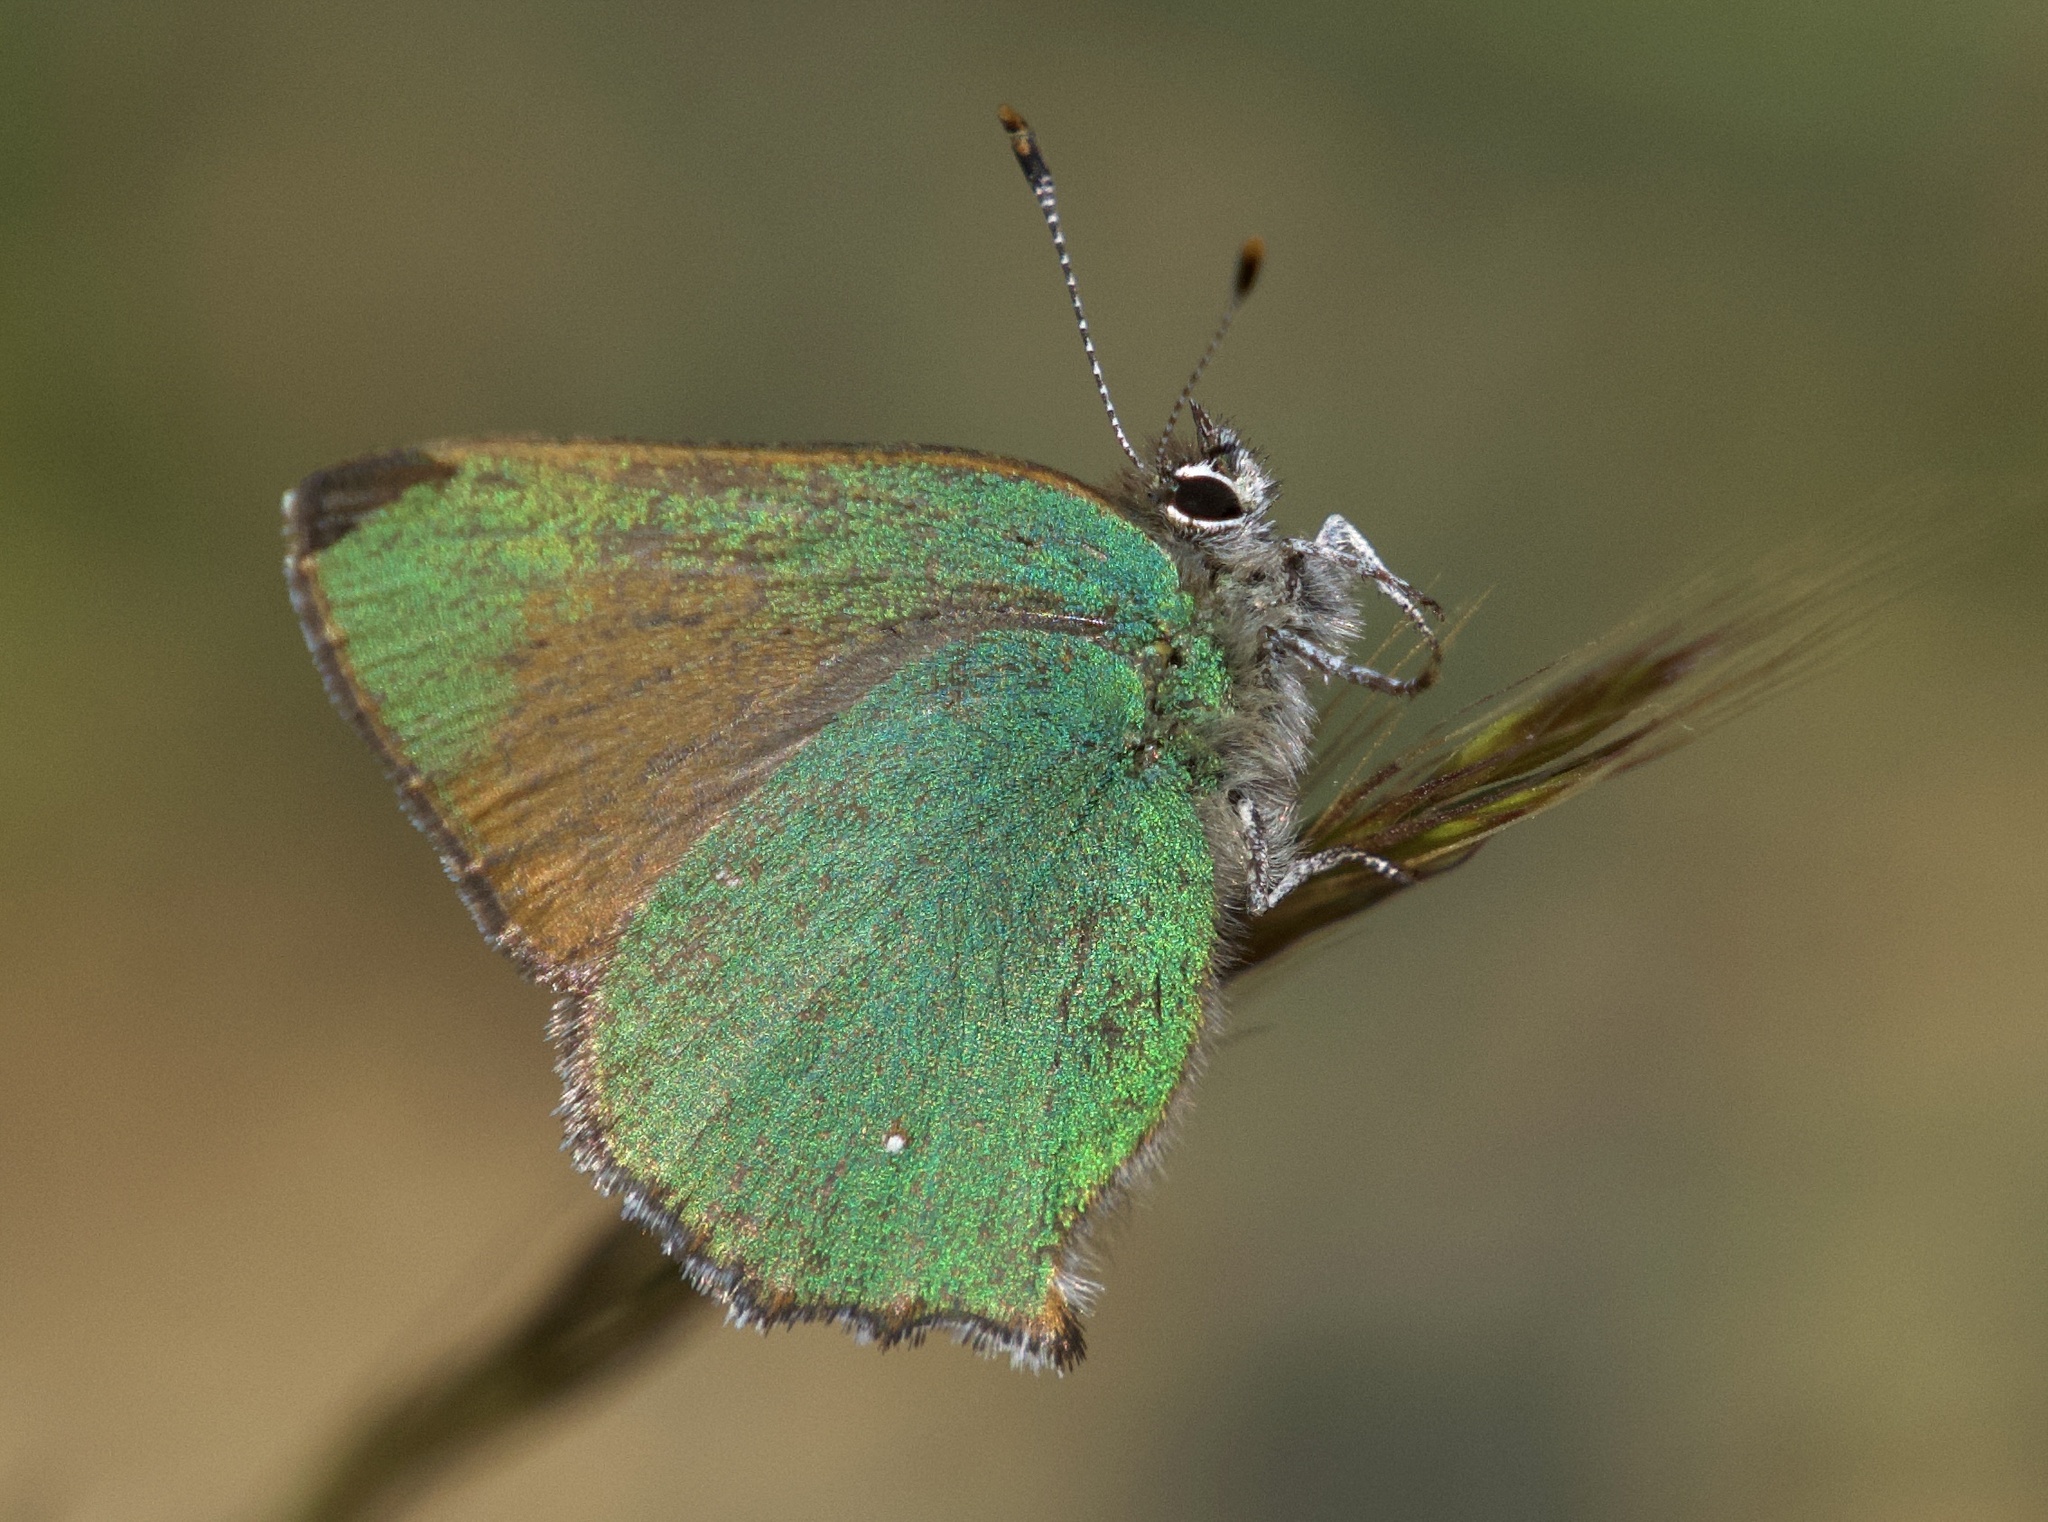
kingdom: Animalia
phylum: Arthropoda
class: Insecta
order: Lepidoptera
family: Lycaenidae
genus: Callophrys
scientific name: Callophrys dumetorum
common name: Bramble hairstreak
